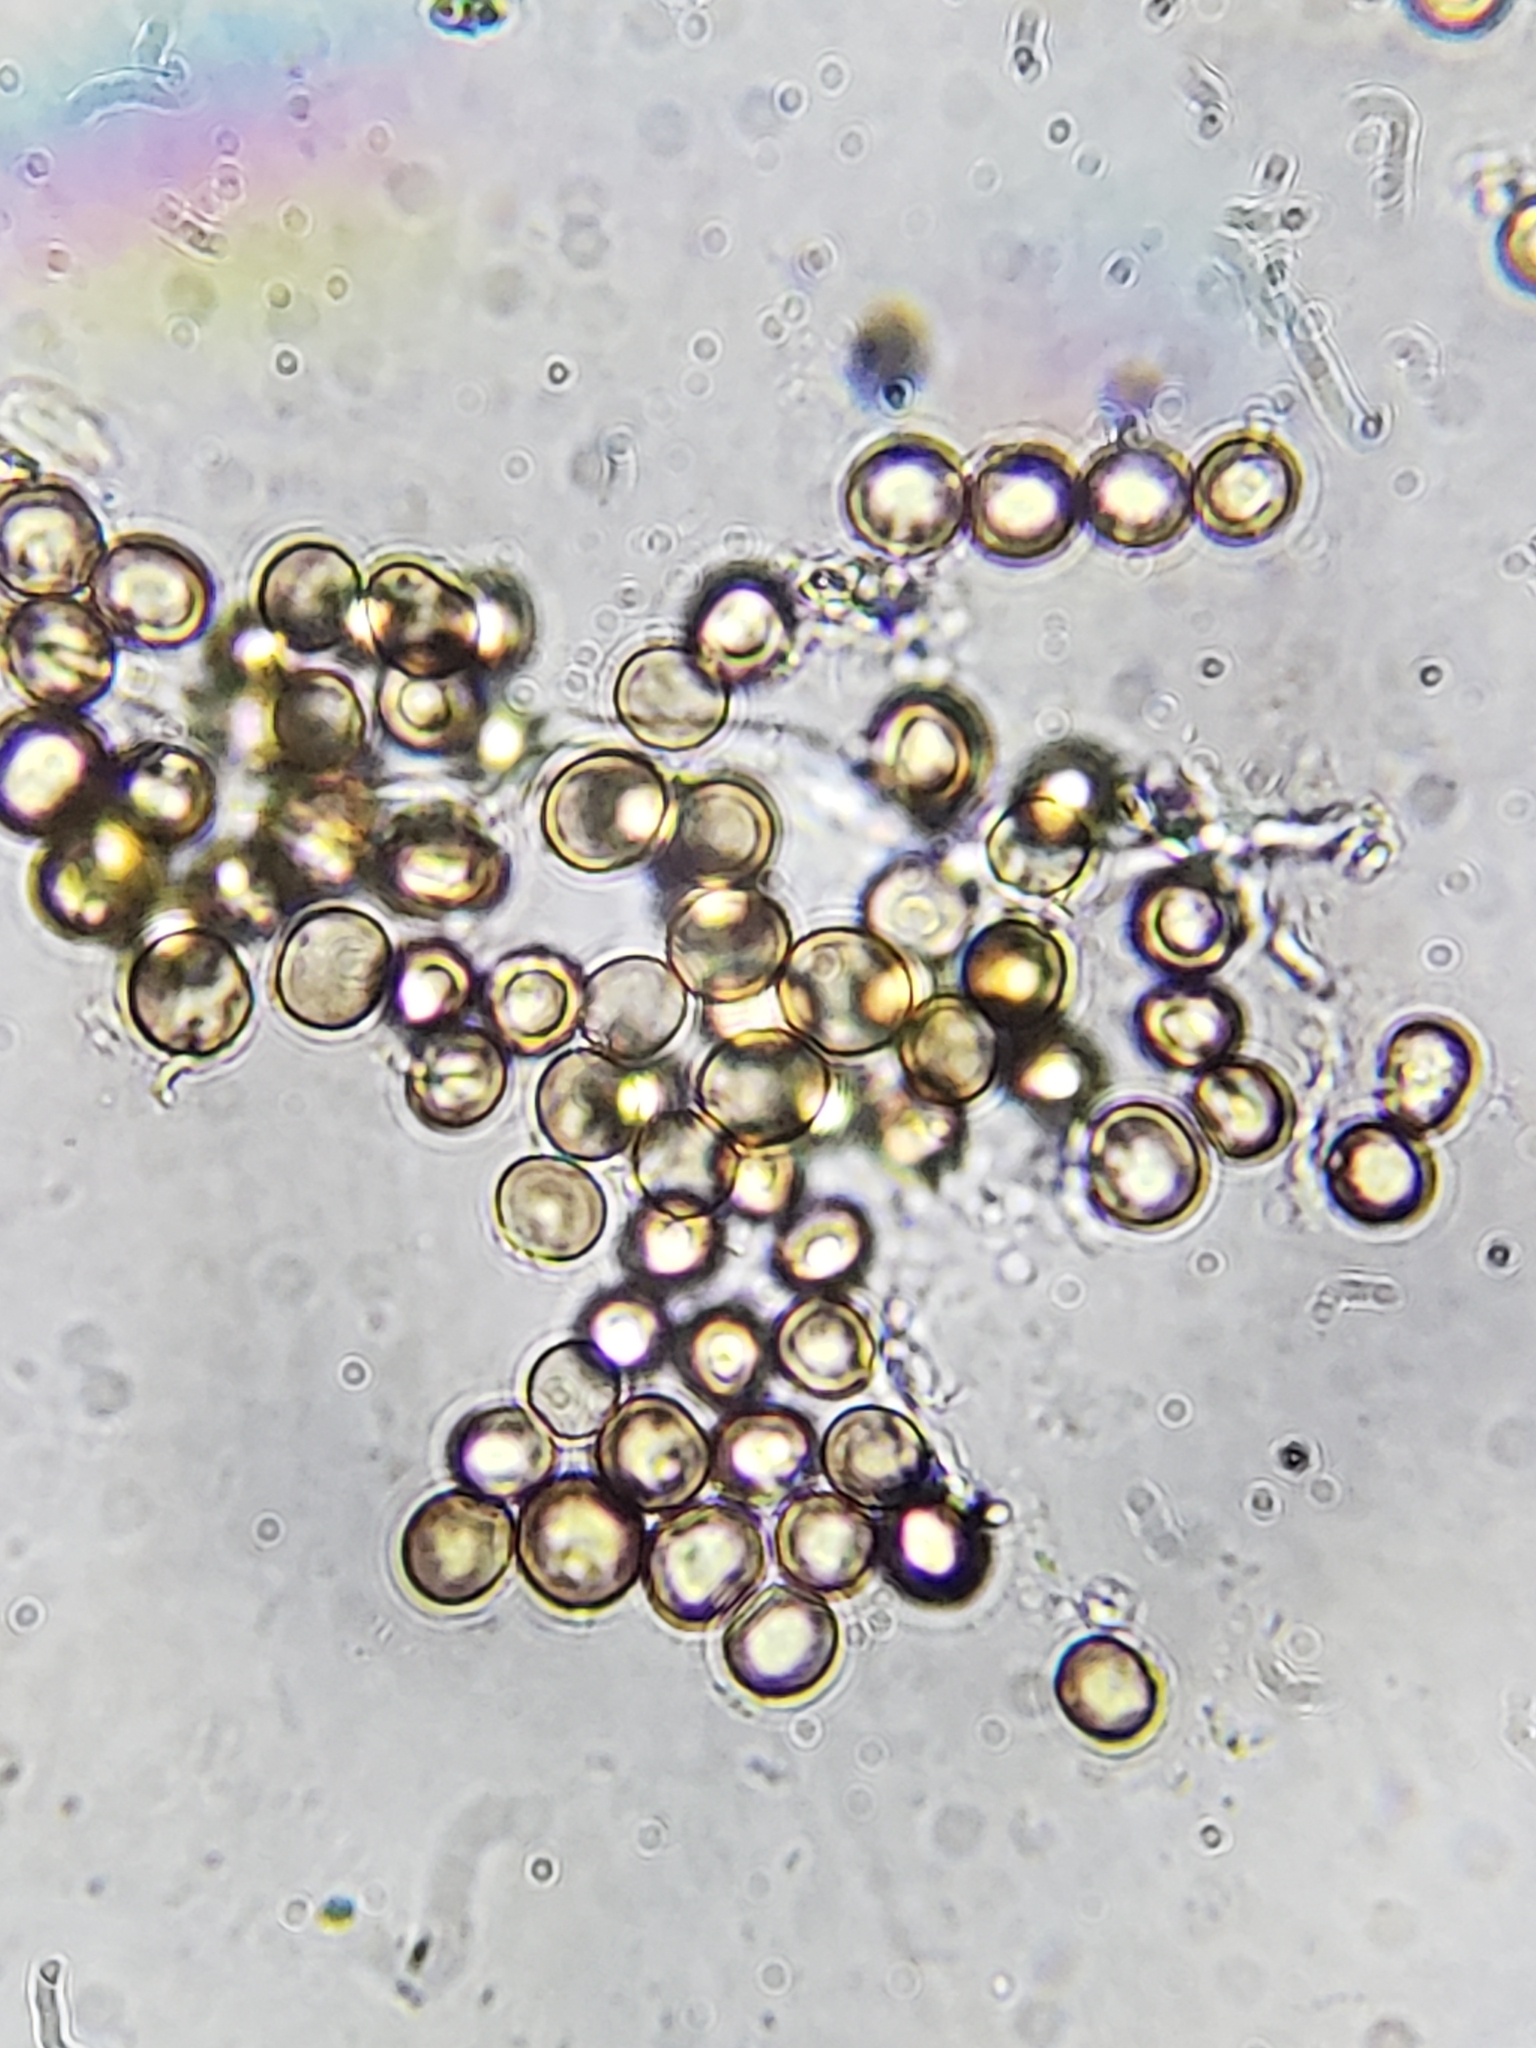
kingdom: Fungi
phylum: Basidiomycota
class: Atractiellomycetes
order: Atractiellales
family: Phleogenaceae
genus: Phleogena
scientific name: Phleogena faginea
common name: Fenugreek stalkball
